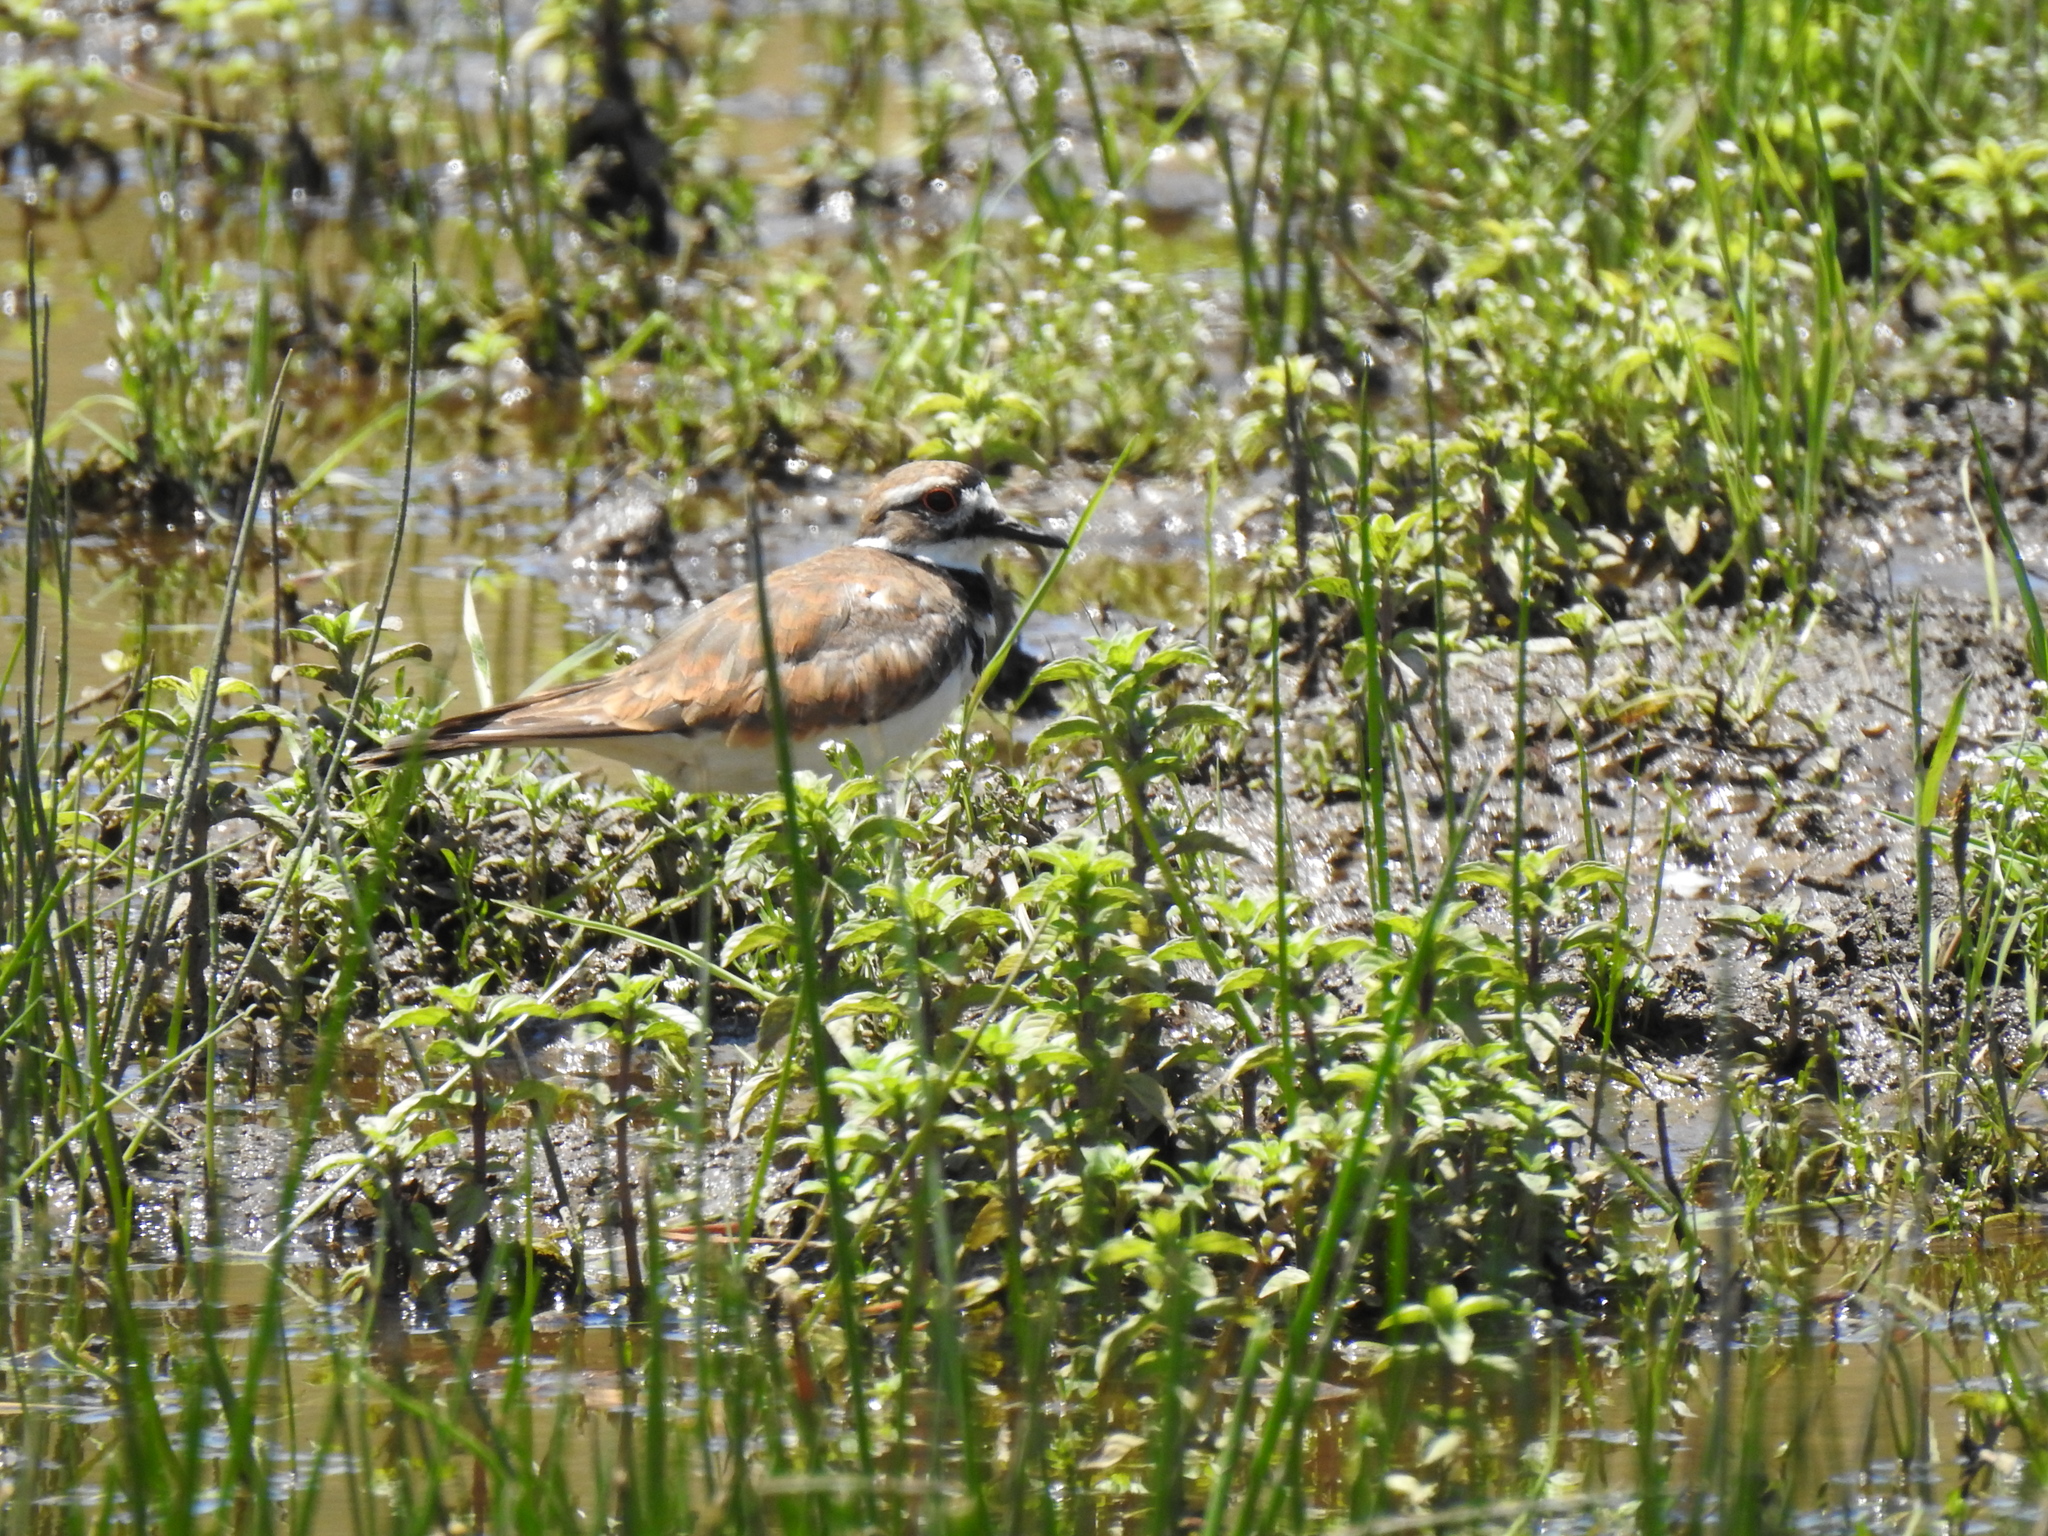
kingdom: Animalia
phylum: Chordata
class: Aves
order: Charadriiformes
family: Charadriidae
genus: Charadrius
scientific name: Charadrius vociferus
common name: Killdeer
